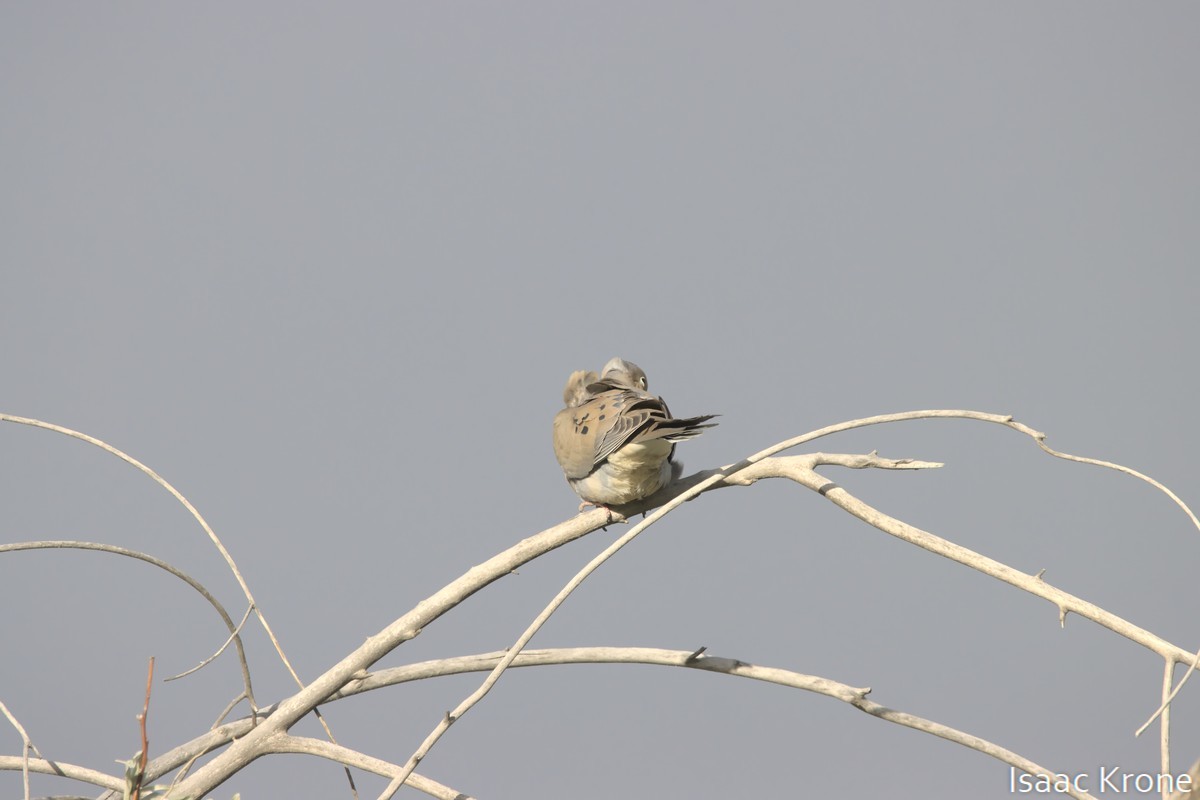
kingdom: Animalia
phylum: Chordata
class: Aves
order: Columbiformes
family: Columbidae
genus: Zenaida
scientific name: Zenaida macroura
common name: Mourning dove
